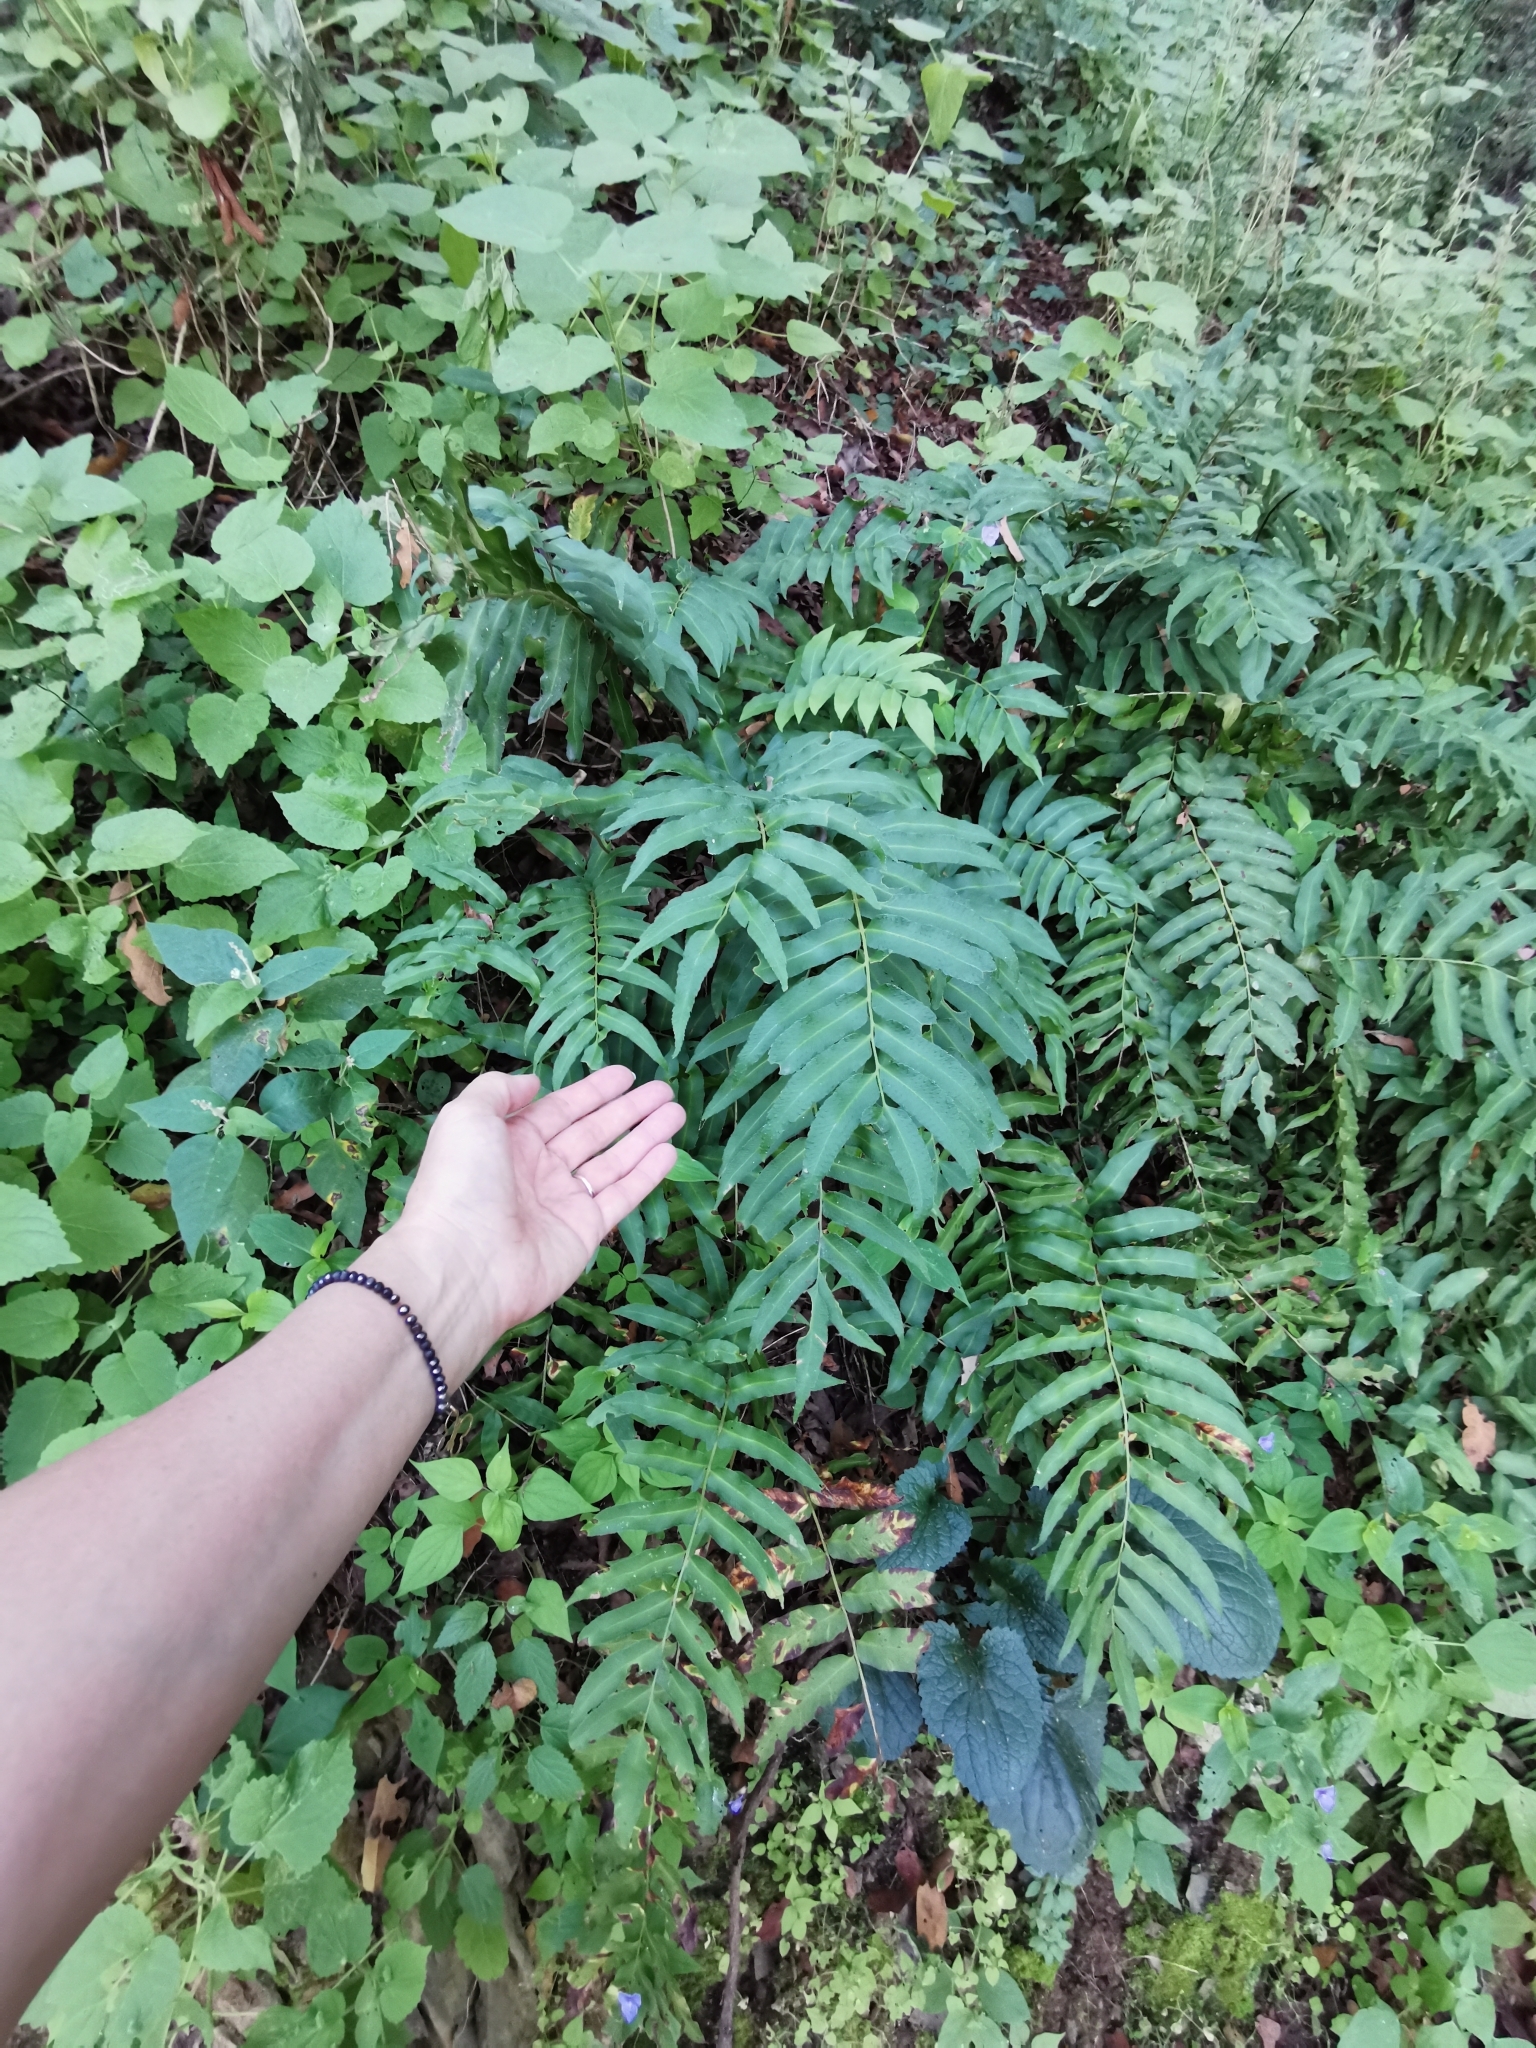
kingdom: Plantae
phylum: Tracheophyta
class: Polypodiopsida
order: Polypodiales
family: Dryopteridaceae
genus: Phanerophlebia
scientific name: Phanerophlebia umbonata
